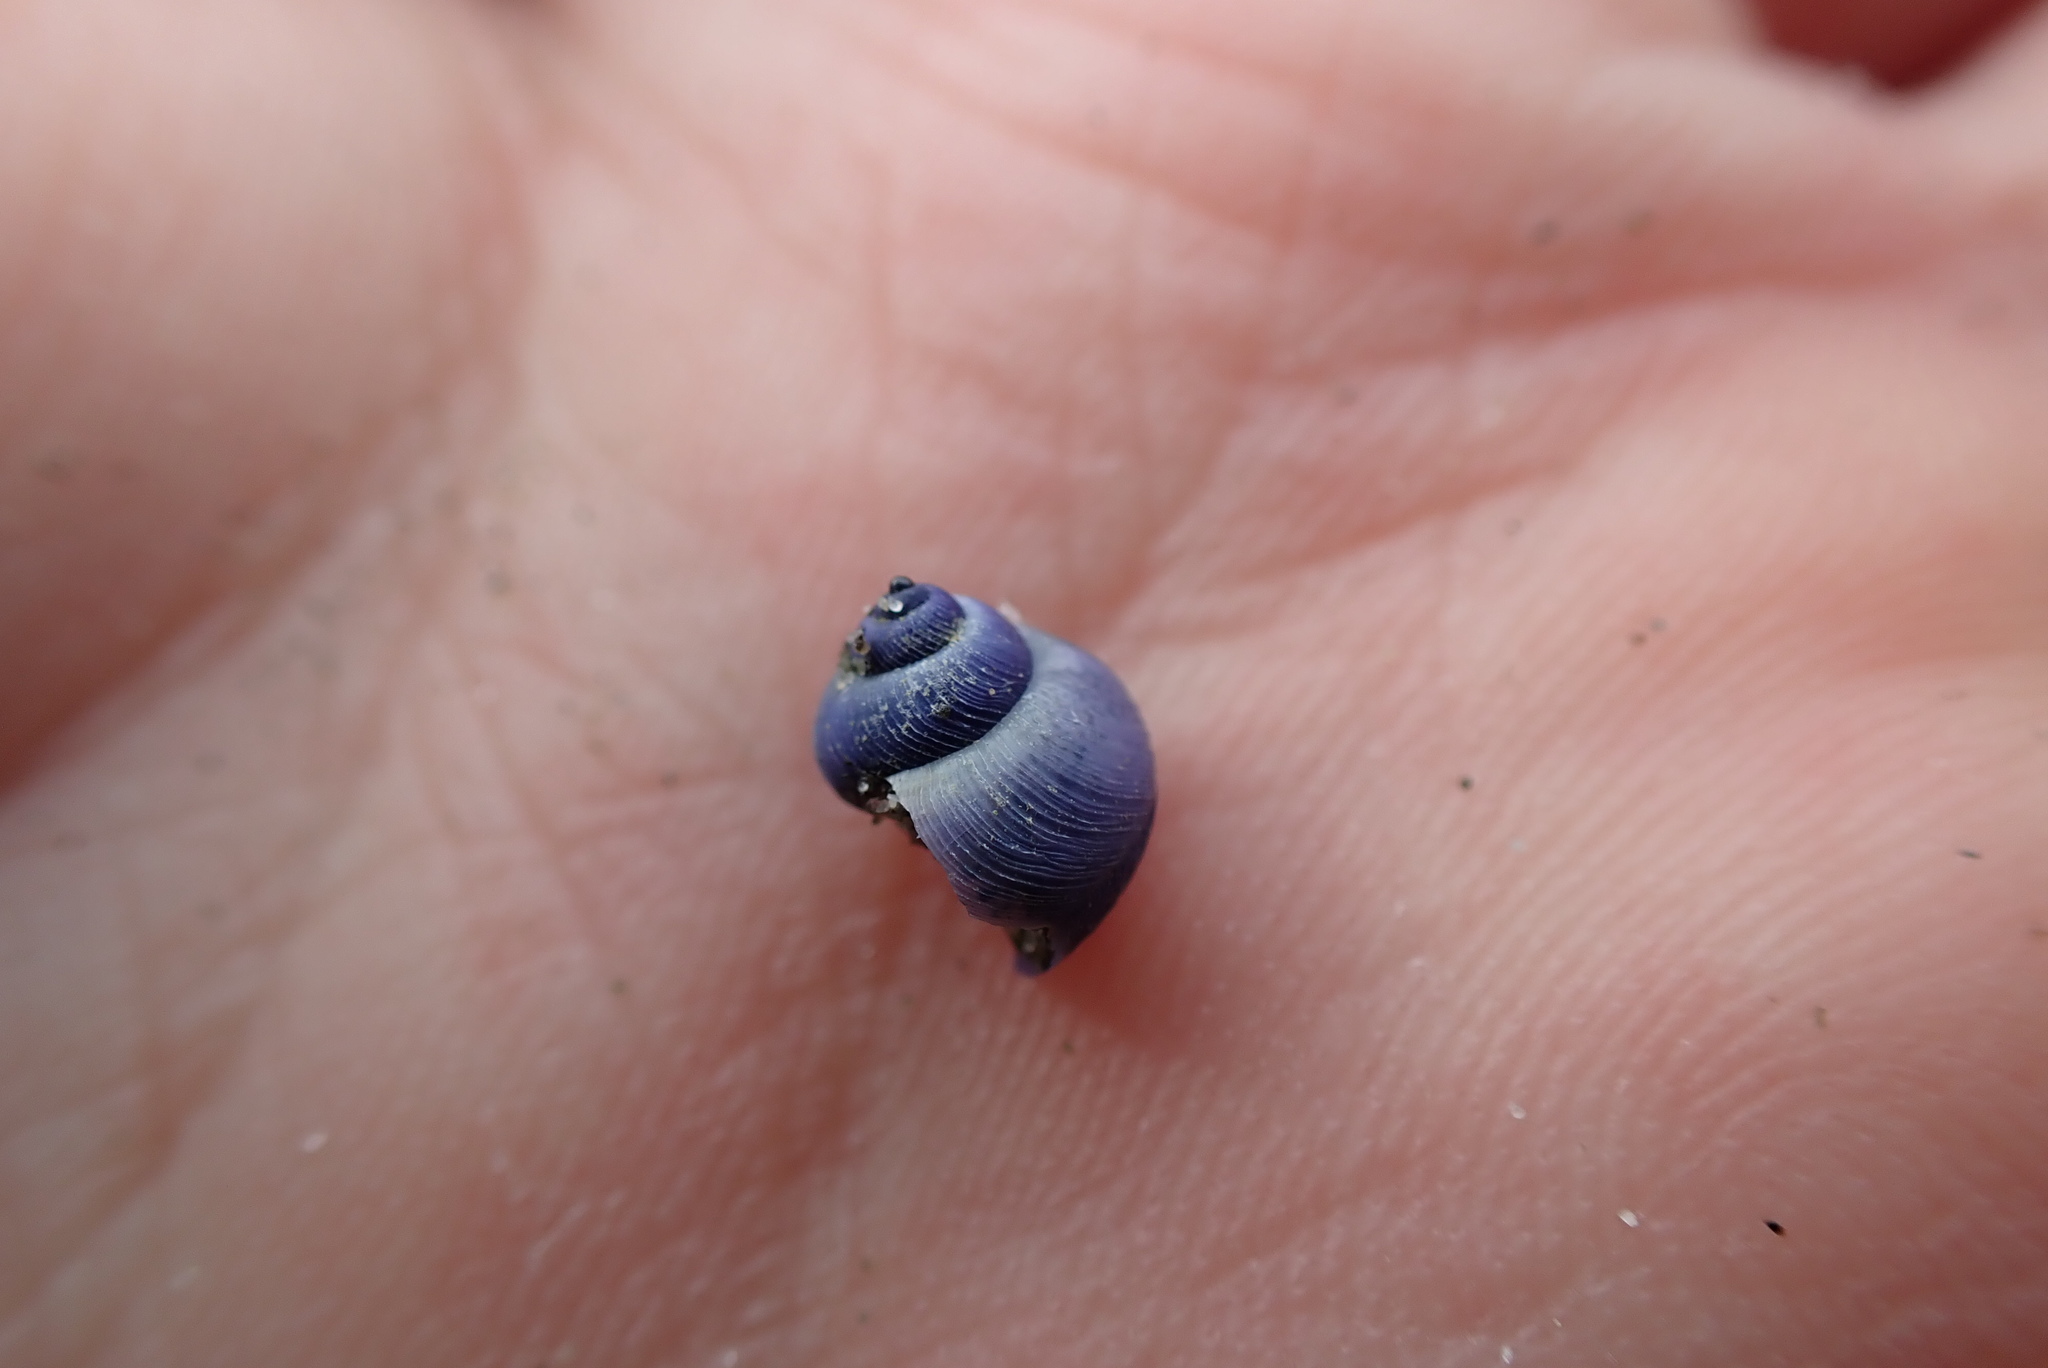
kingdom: Animalia
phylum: Mollusca
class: Gastropoda
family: Epitoniidae
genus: Janthina
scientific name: Janthina exigua
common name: Dwarf janthina
